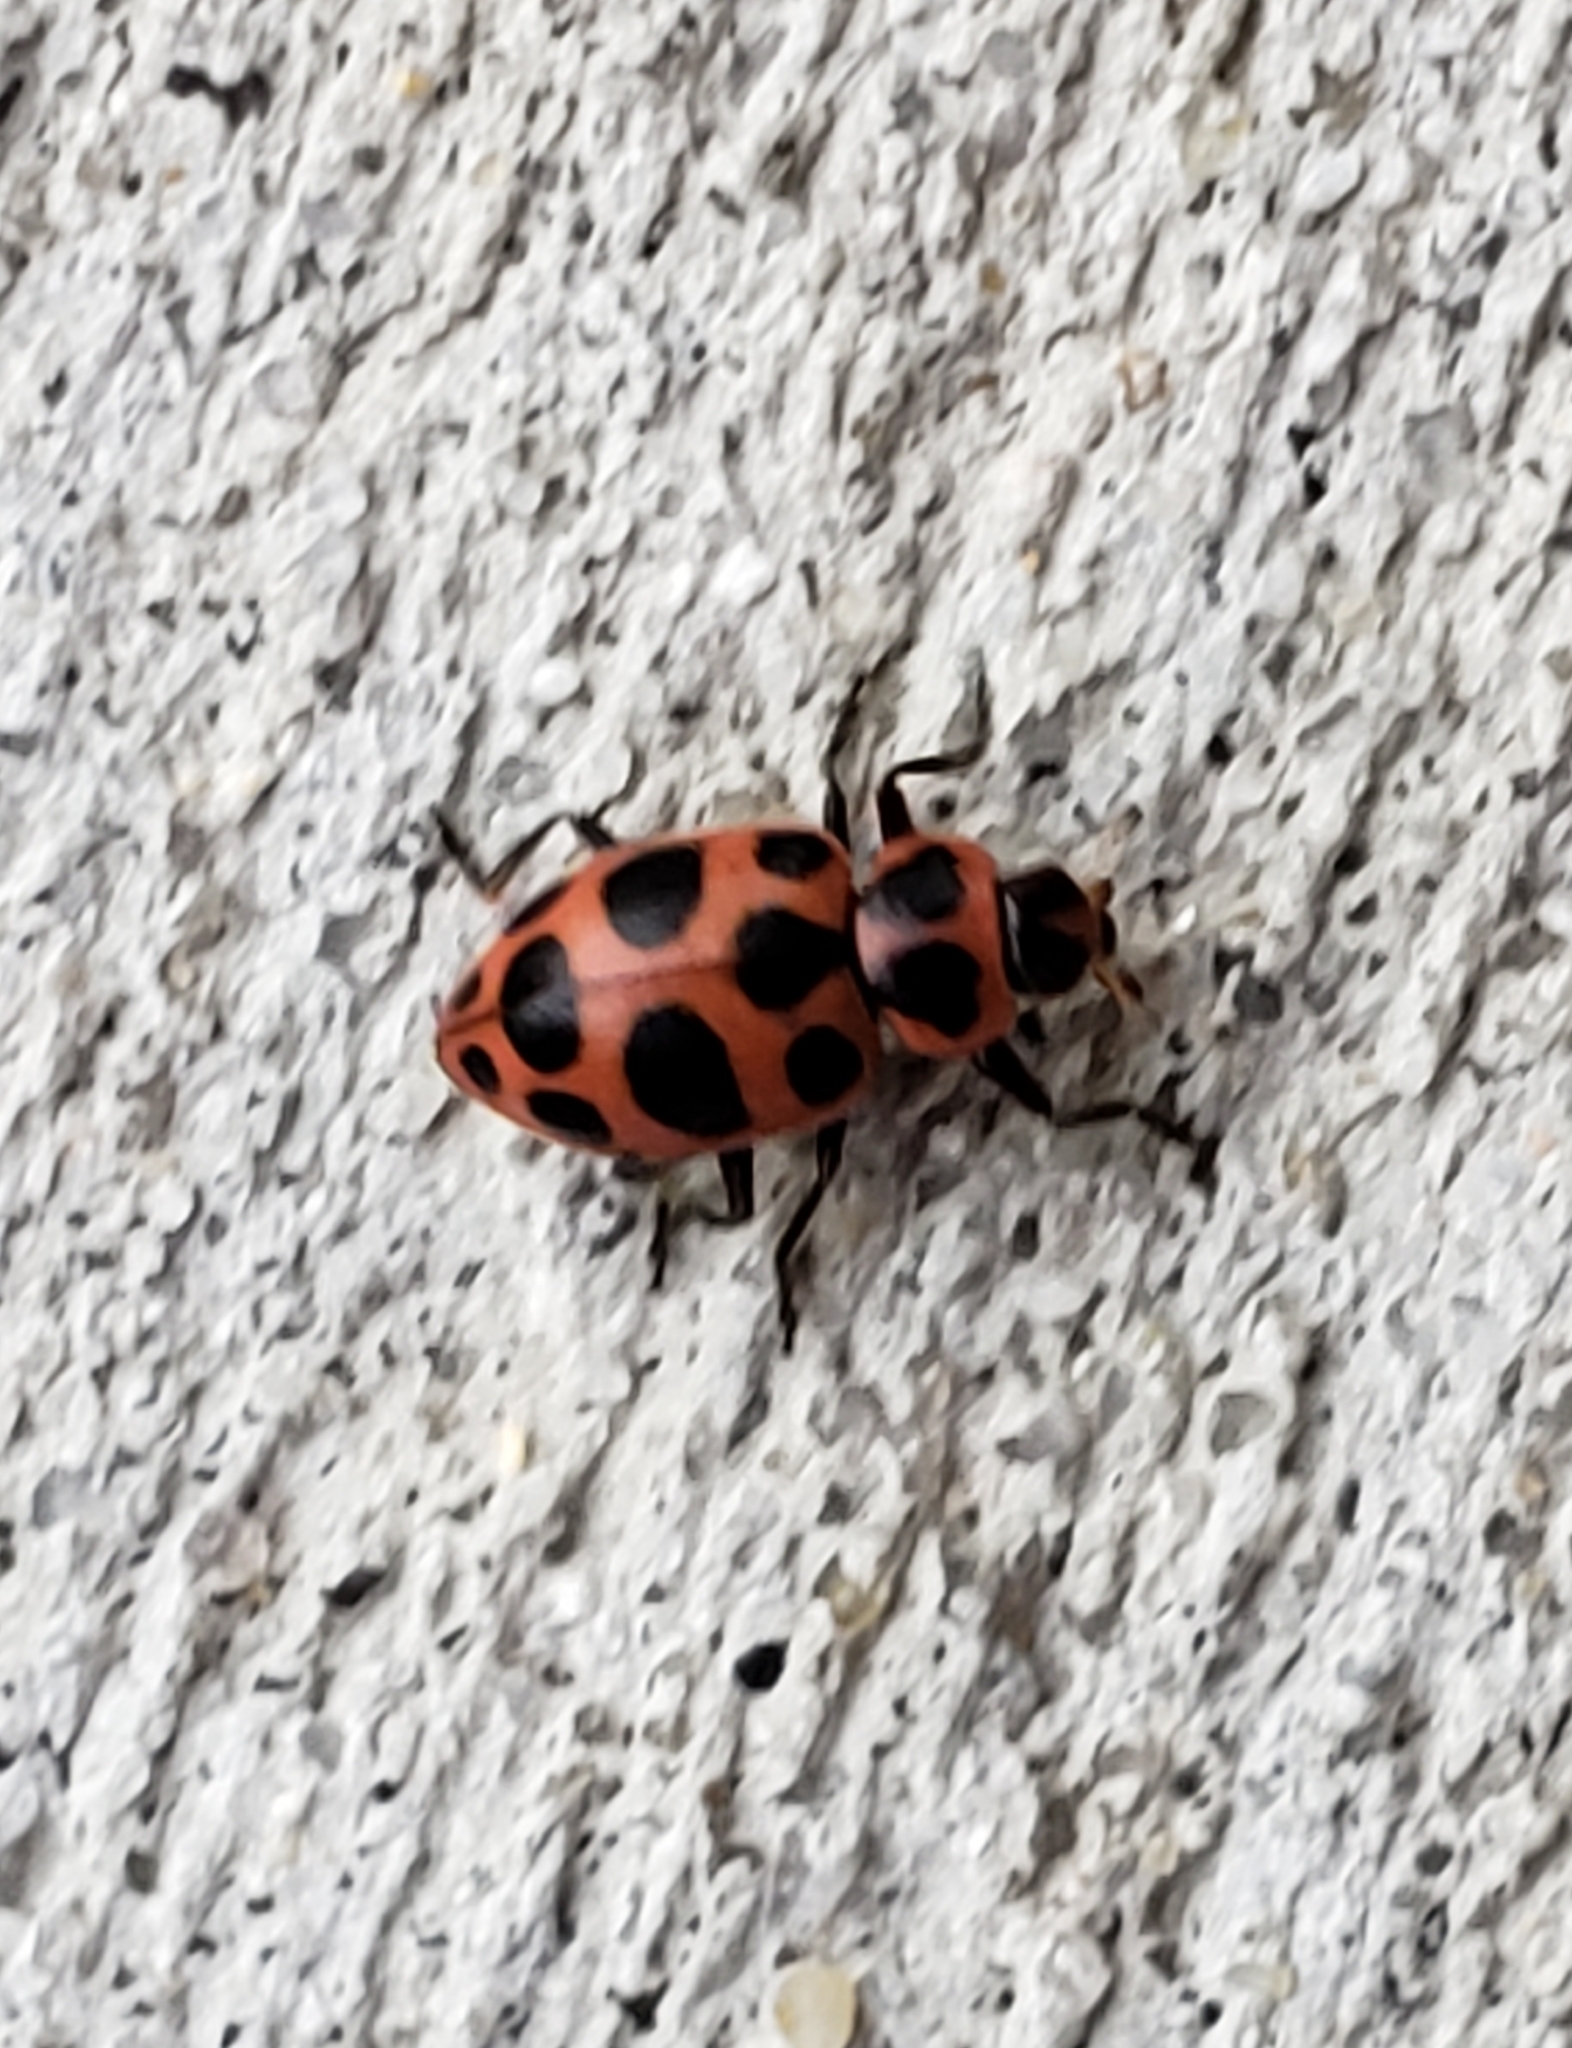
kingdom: Animalia
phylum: Arthropoda
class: Insecta
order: Coleoptera
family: Coccinellidae
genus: Coleomegilla
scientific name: Coleomegilla maculata
